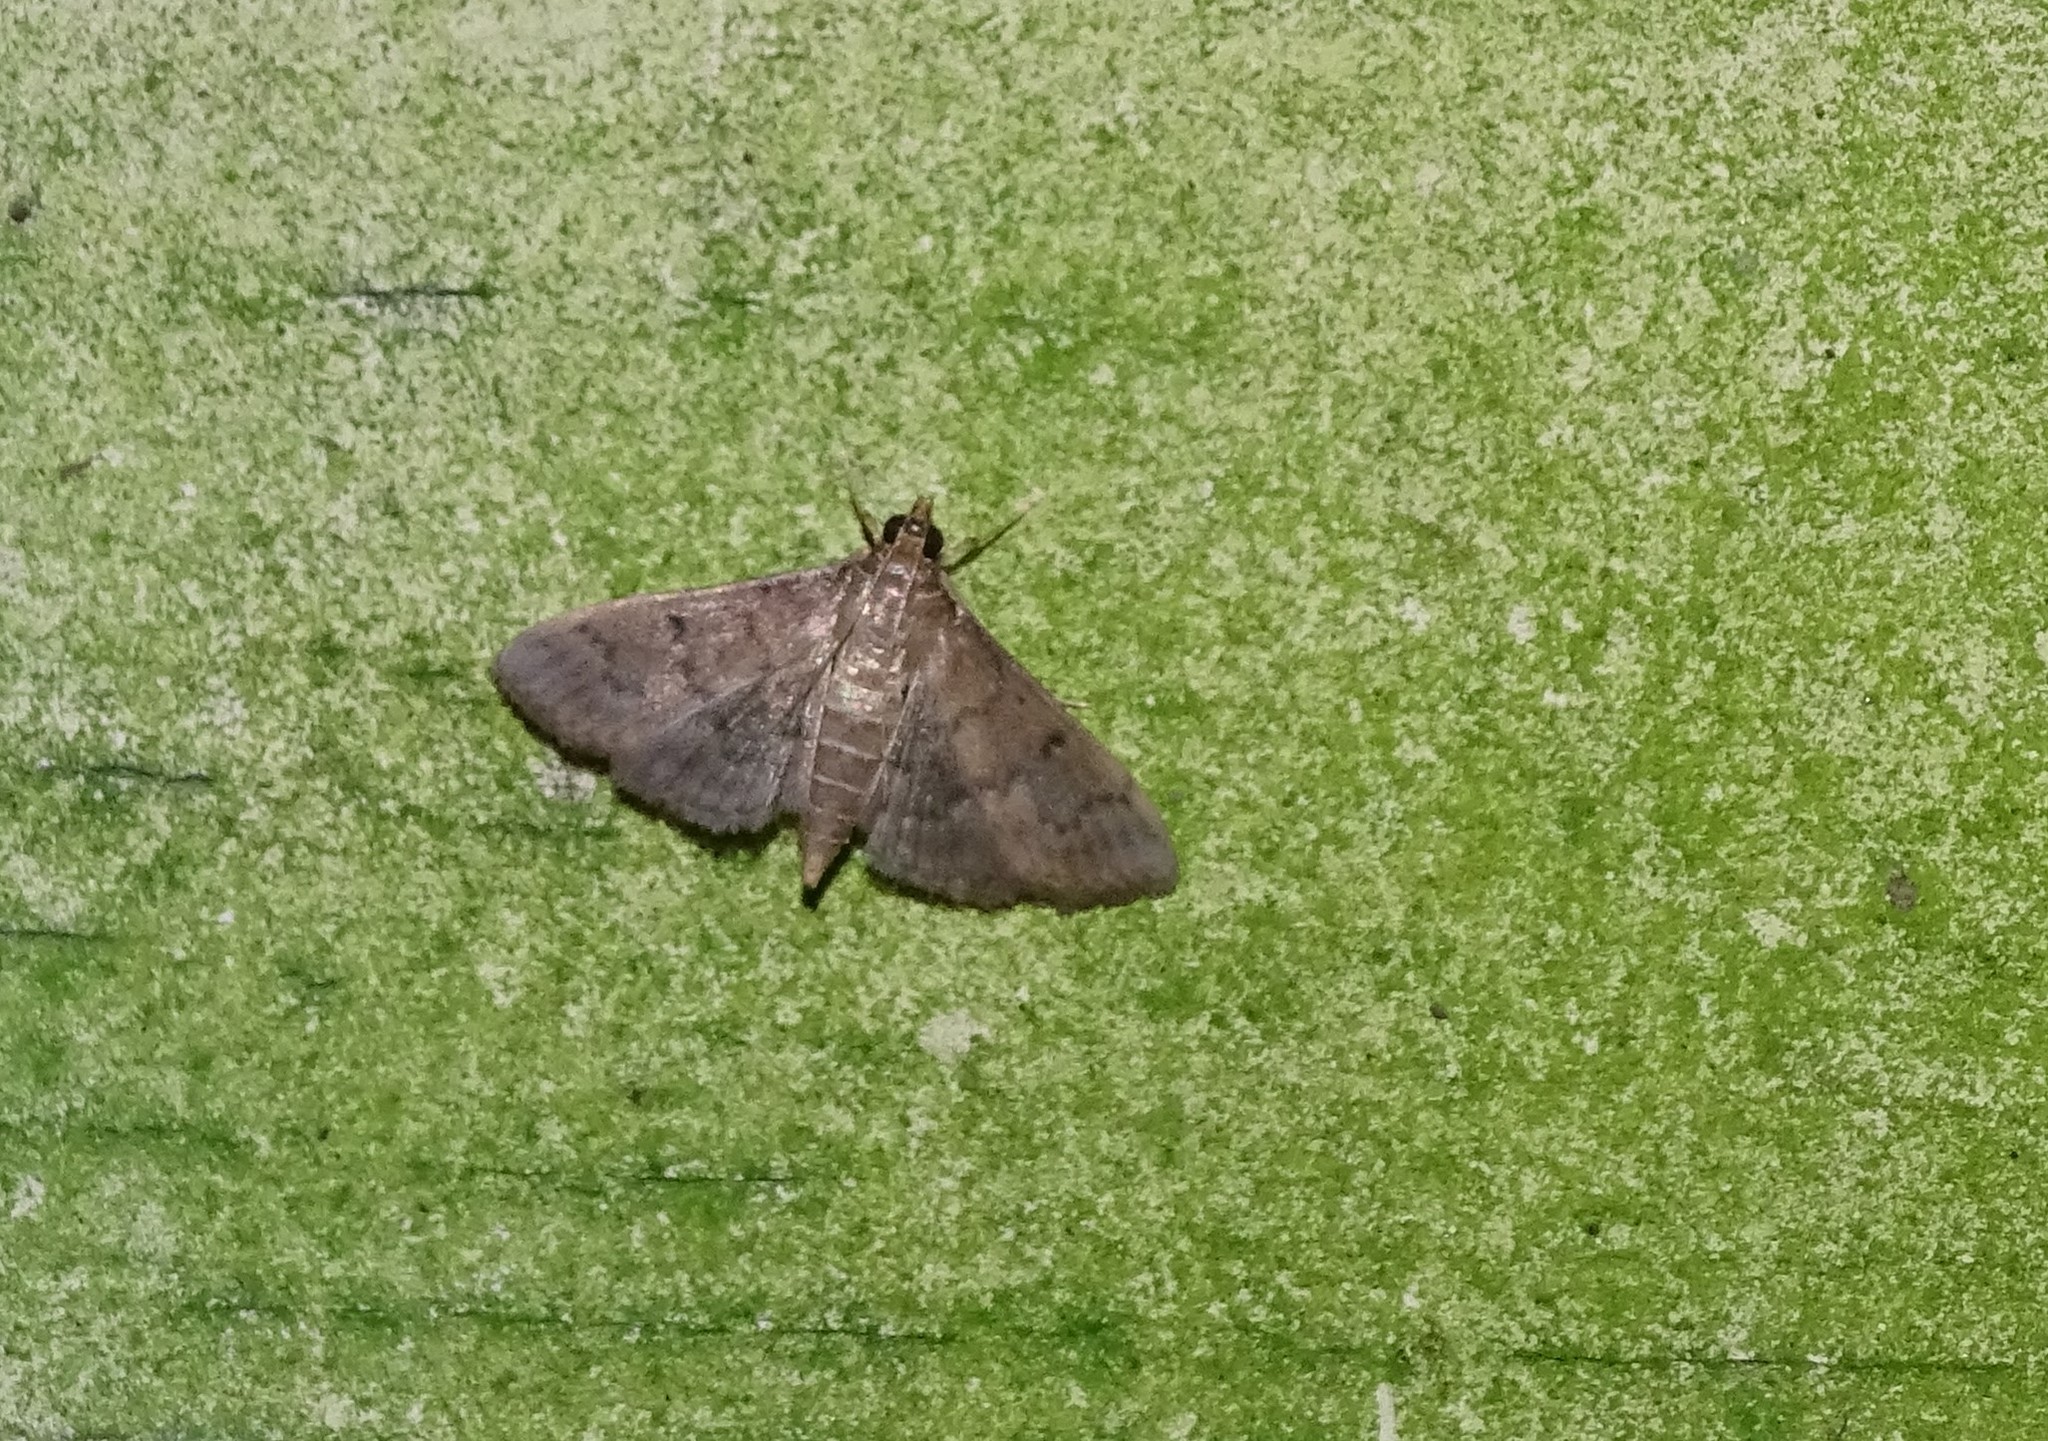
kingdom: Animalia
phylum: Arthropoda
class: Insecta
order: Lepidoptera
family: Crambidae
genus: Herpetogramma
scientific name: Herpetogramma phaeopteralis
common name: Dusky herpetogramma moth
